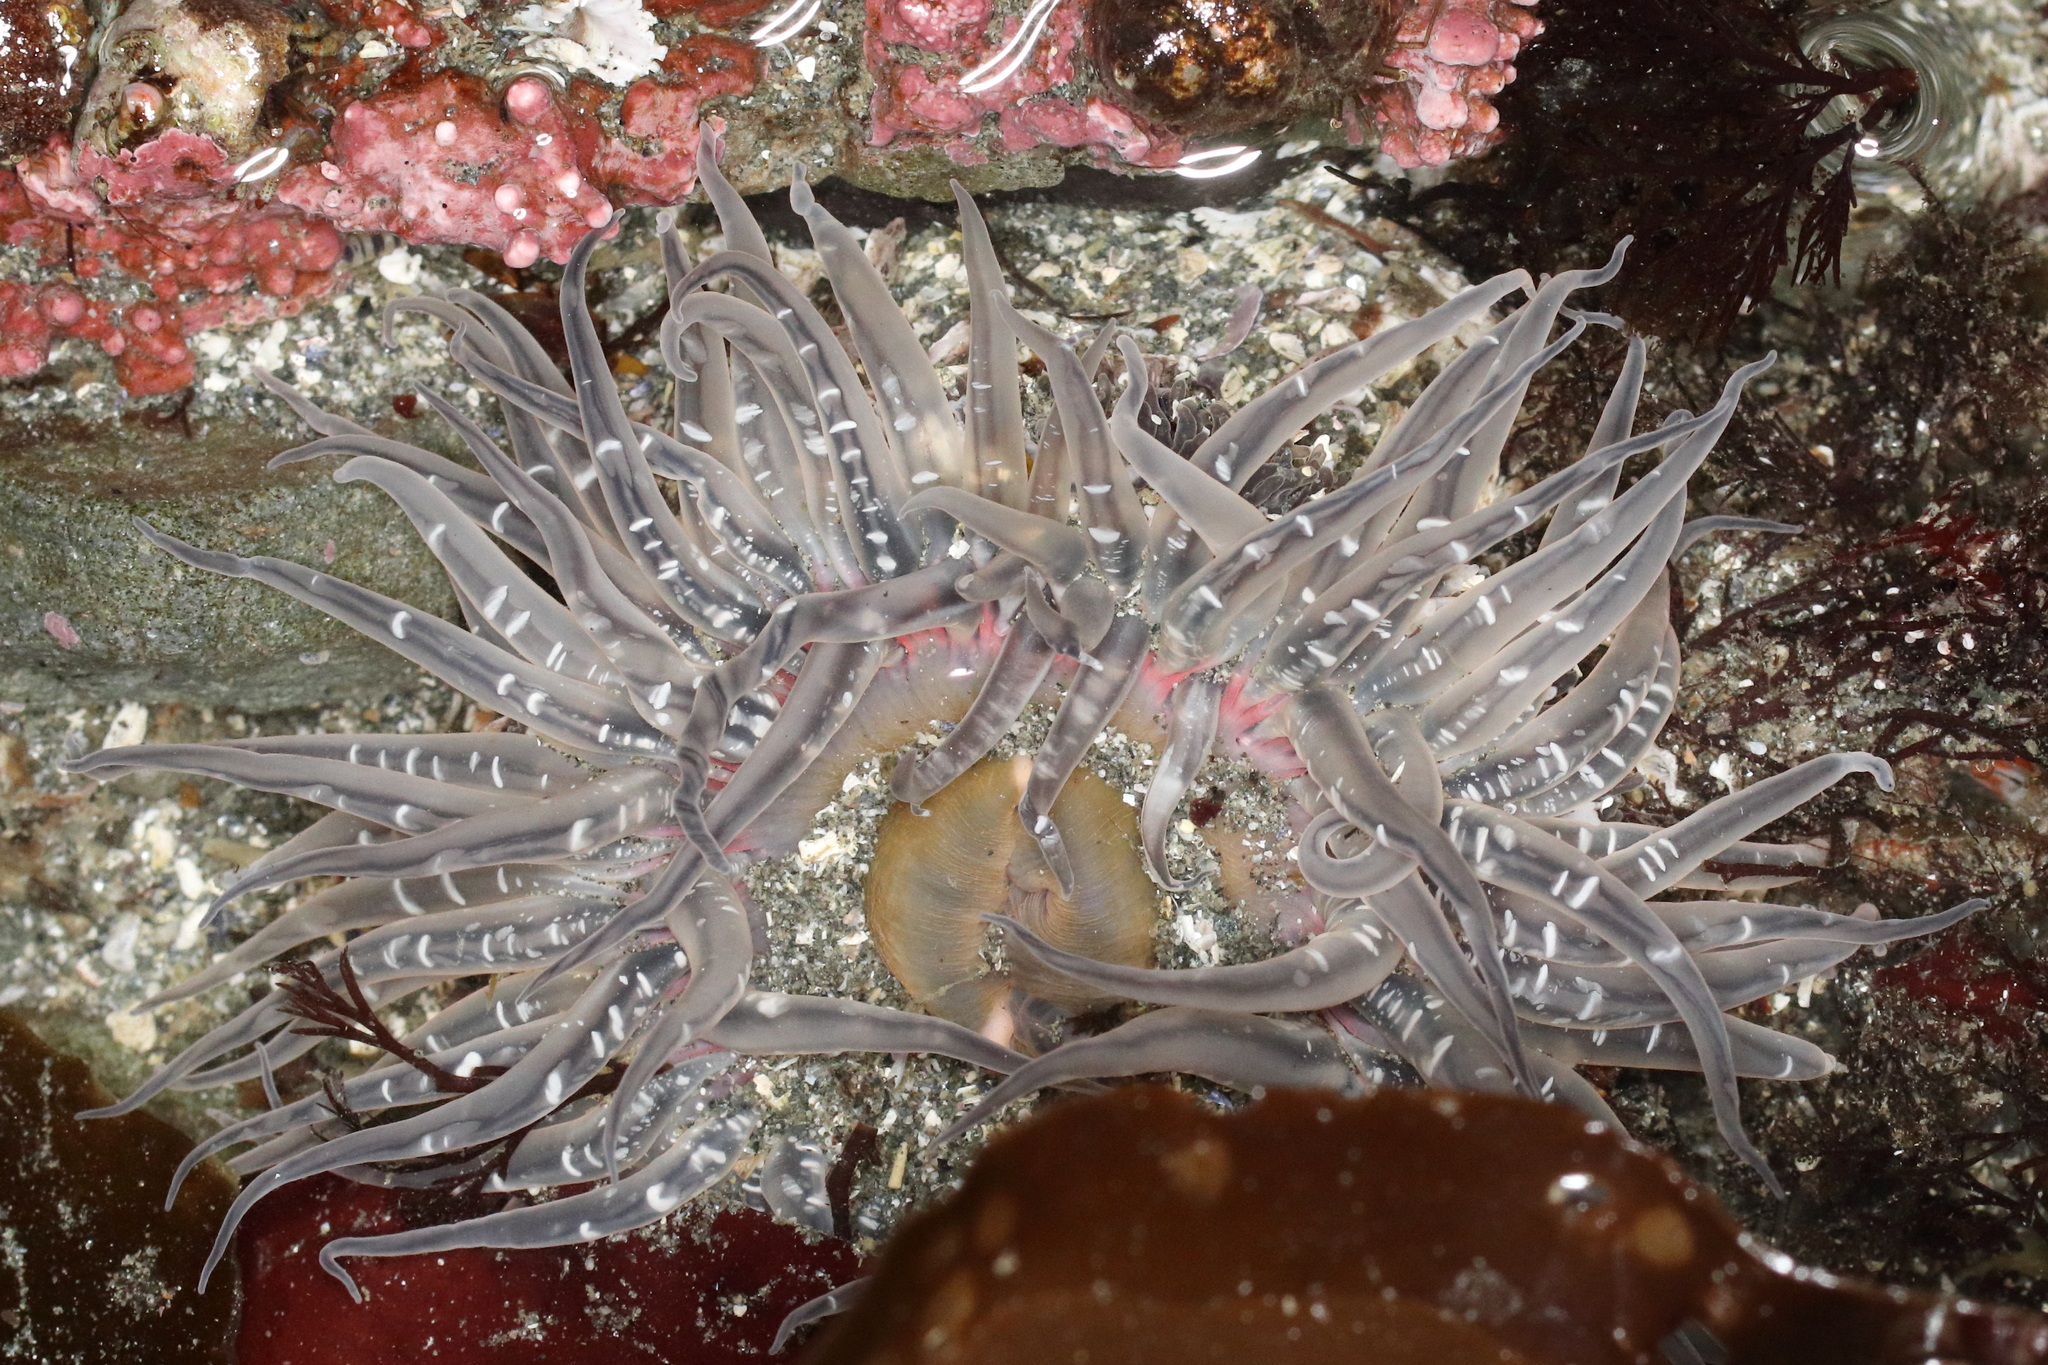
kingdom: Animalia
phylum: Cnidaria
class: Anthozoa
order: Actiniaria
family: Actiniidae
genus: Anthopleura
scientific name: Anthopleura artemisia
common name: Buried sea anemone
